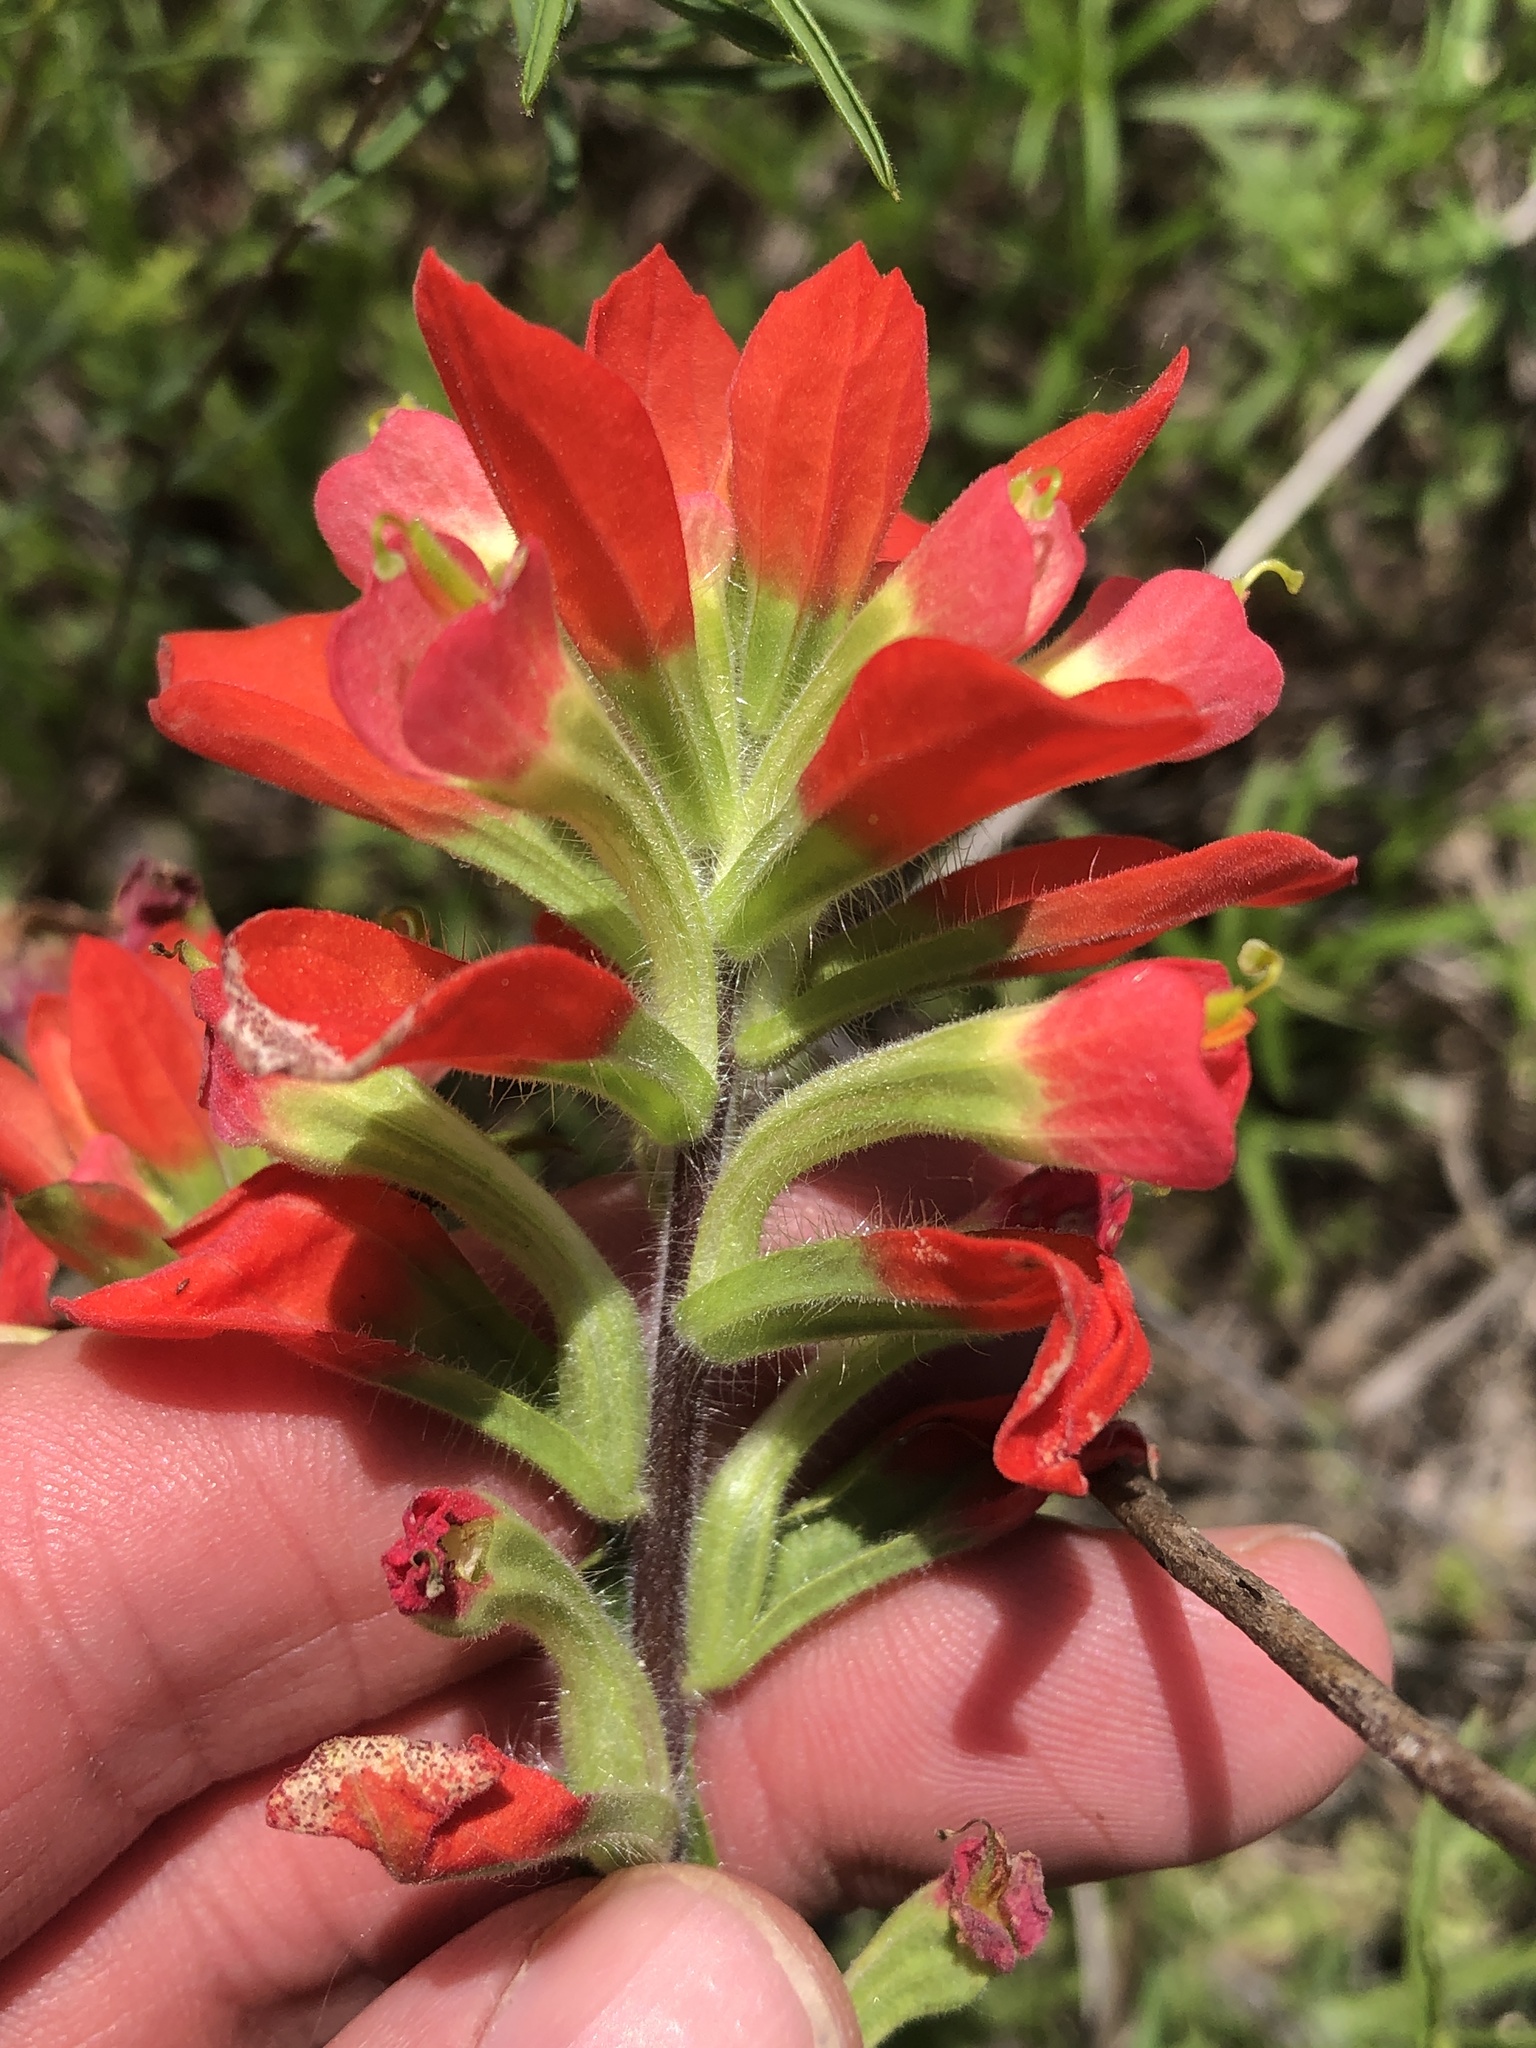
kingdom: Plantae
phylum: Tracheophyta
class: Magnoliopsida
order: Lamiales
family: Orobanchaceae
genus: Castilleja
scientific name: Castilleja indivisa
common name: Texas paintbrush
